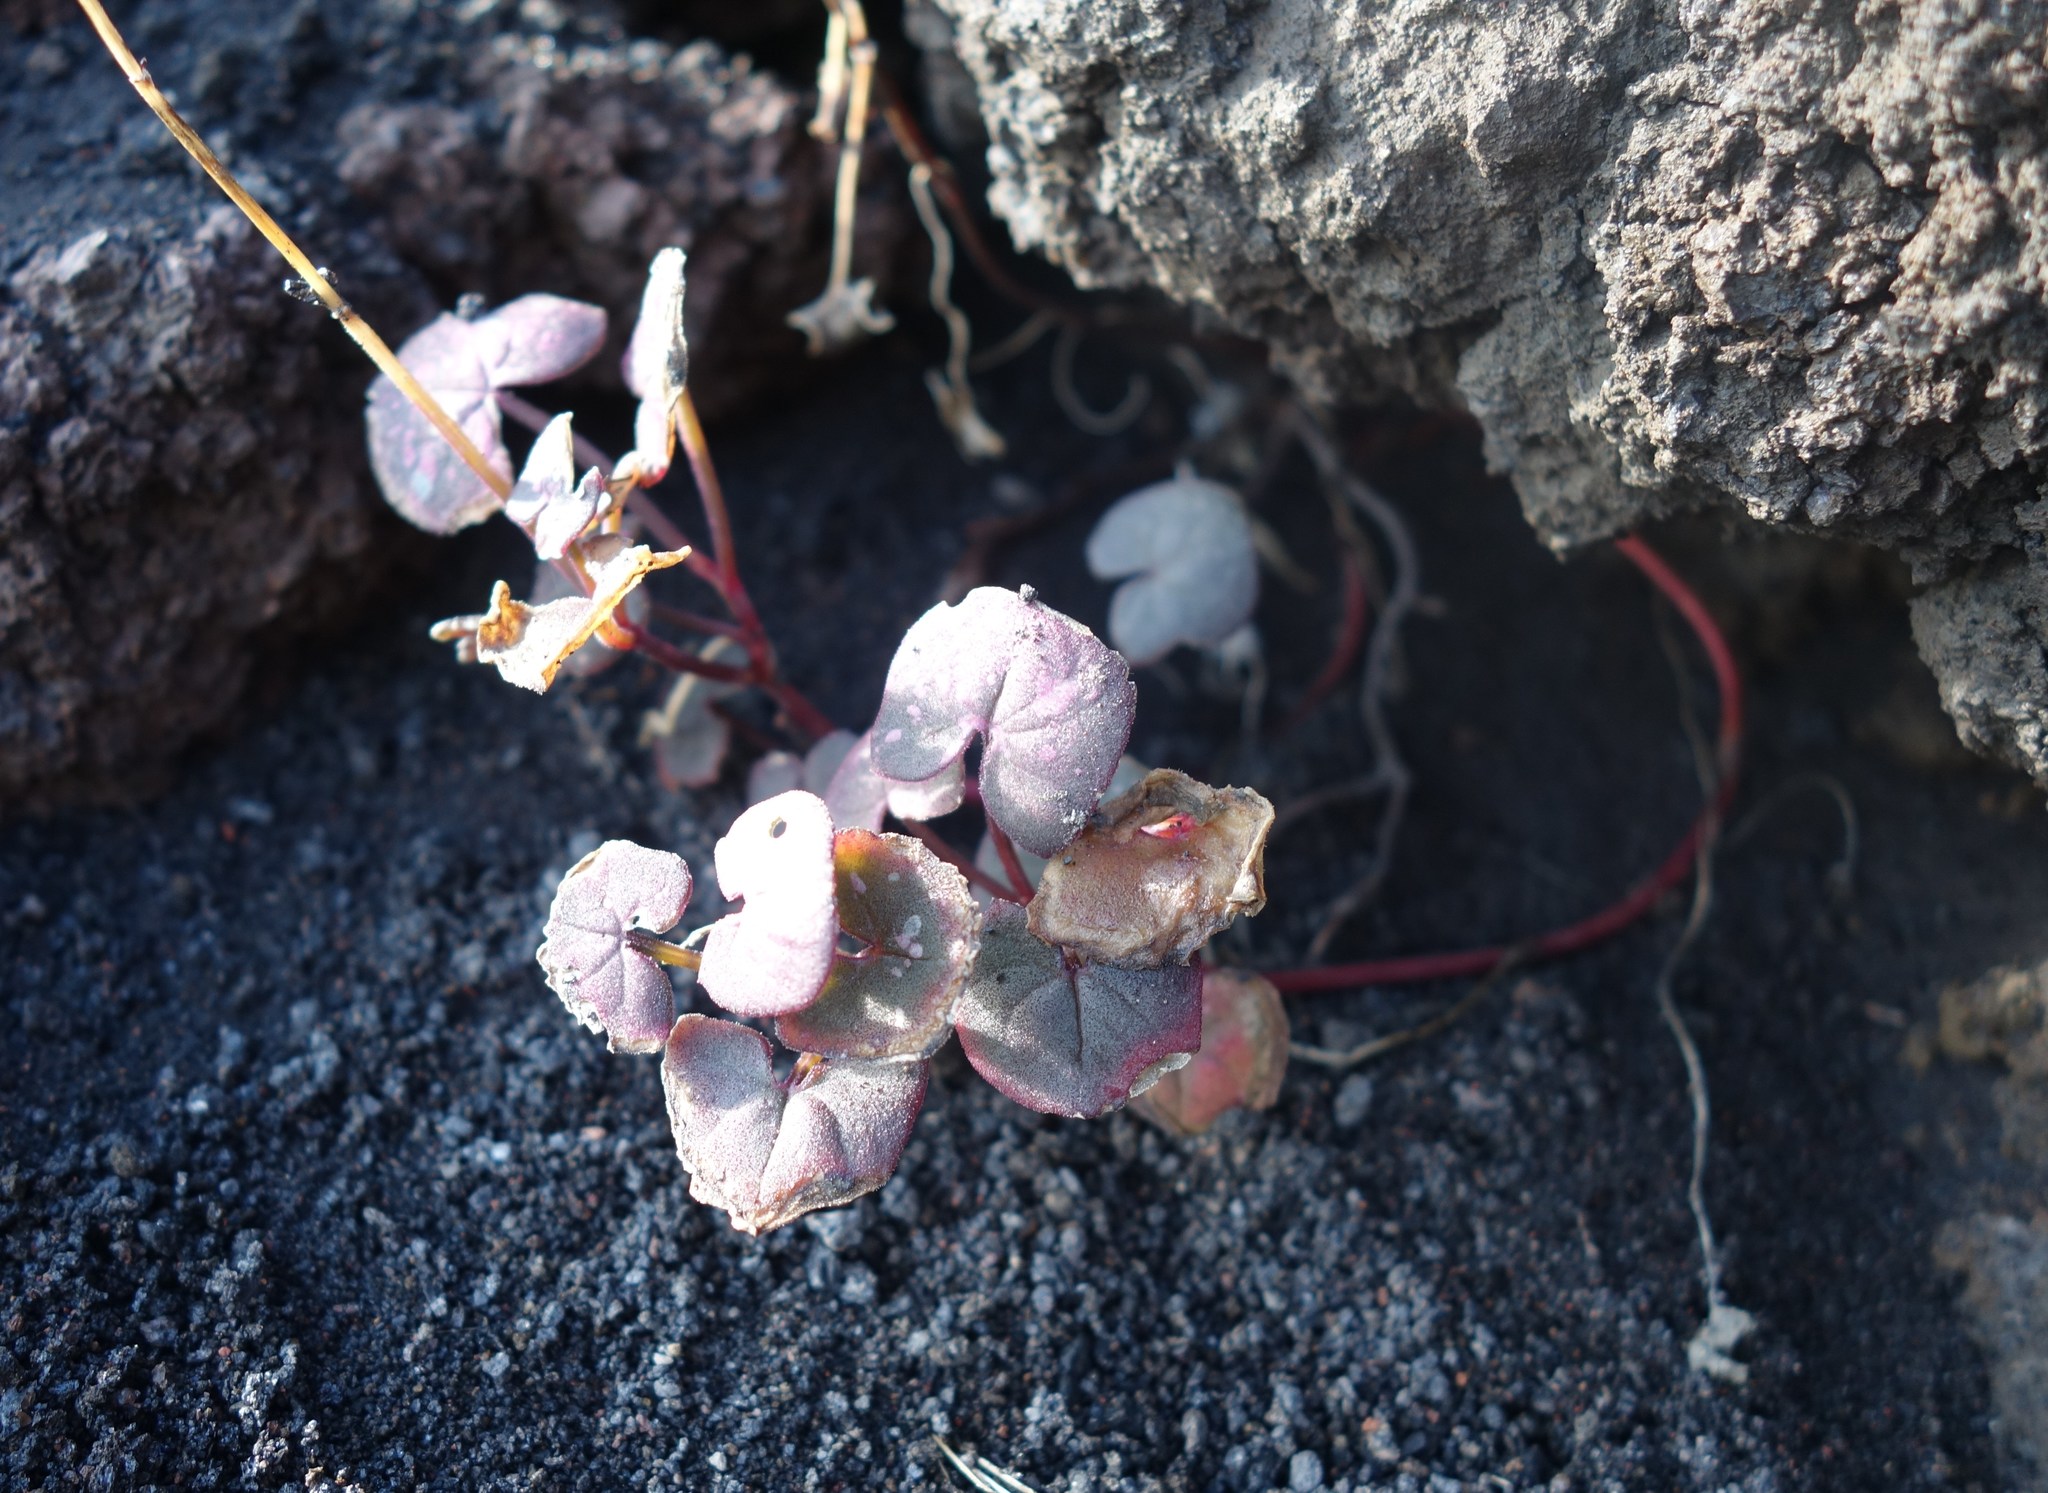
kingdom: Plantae
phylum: Tracheophyta
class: Magnoliopsida
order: Caryophyllales
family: Polygonaceae
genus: Rumex
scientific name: Rumex scutatus
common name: French sorrel
